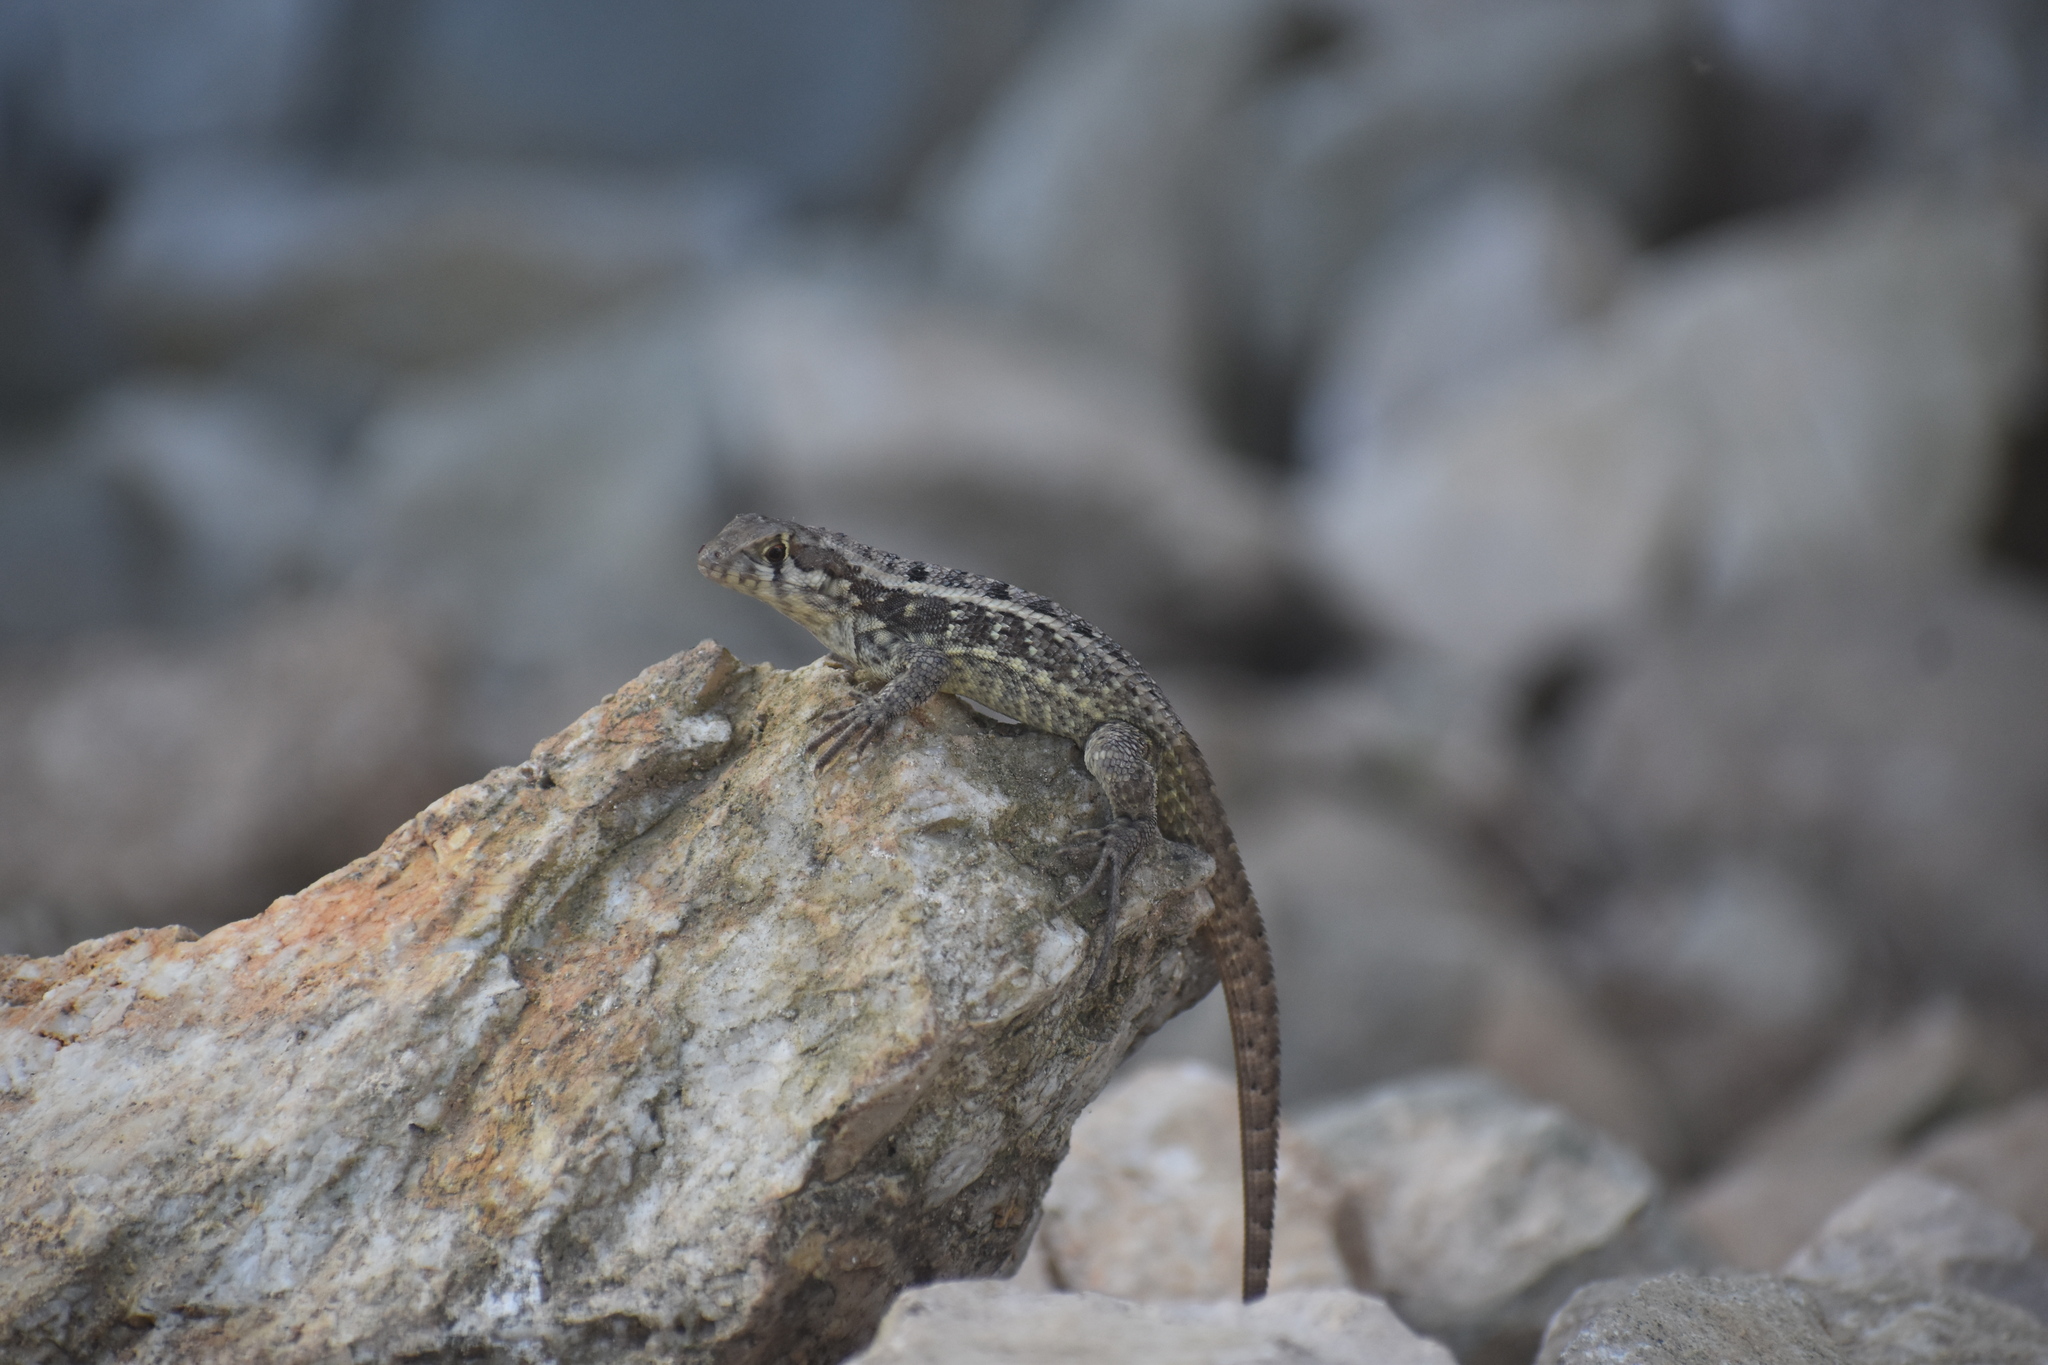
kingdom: Animalia
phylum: Chordata
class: Squamata
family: Leiocephalidae
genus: Leiocephalus
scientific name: Leiocephalus melanochlorus
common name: Jeremie curlytail lizard
